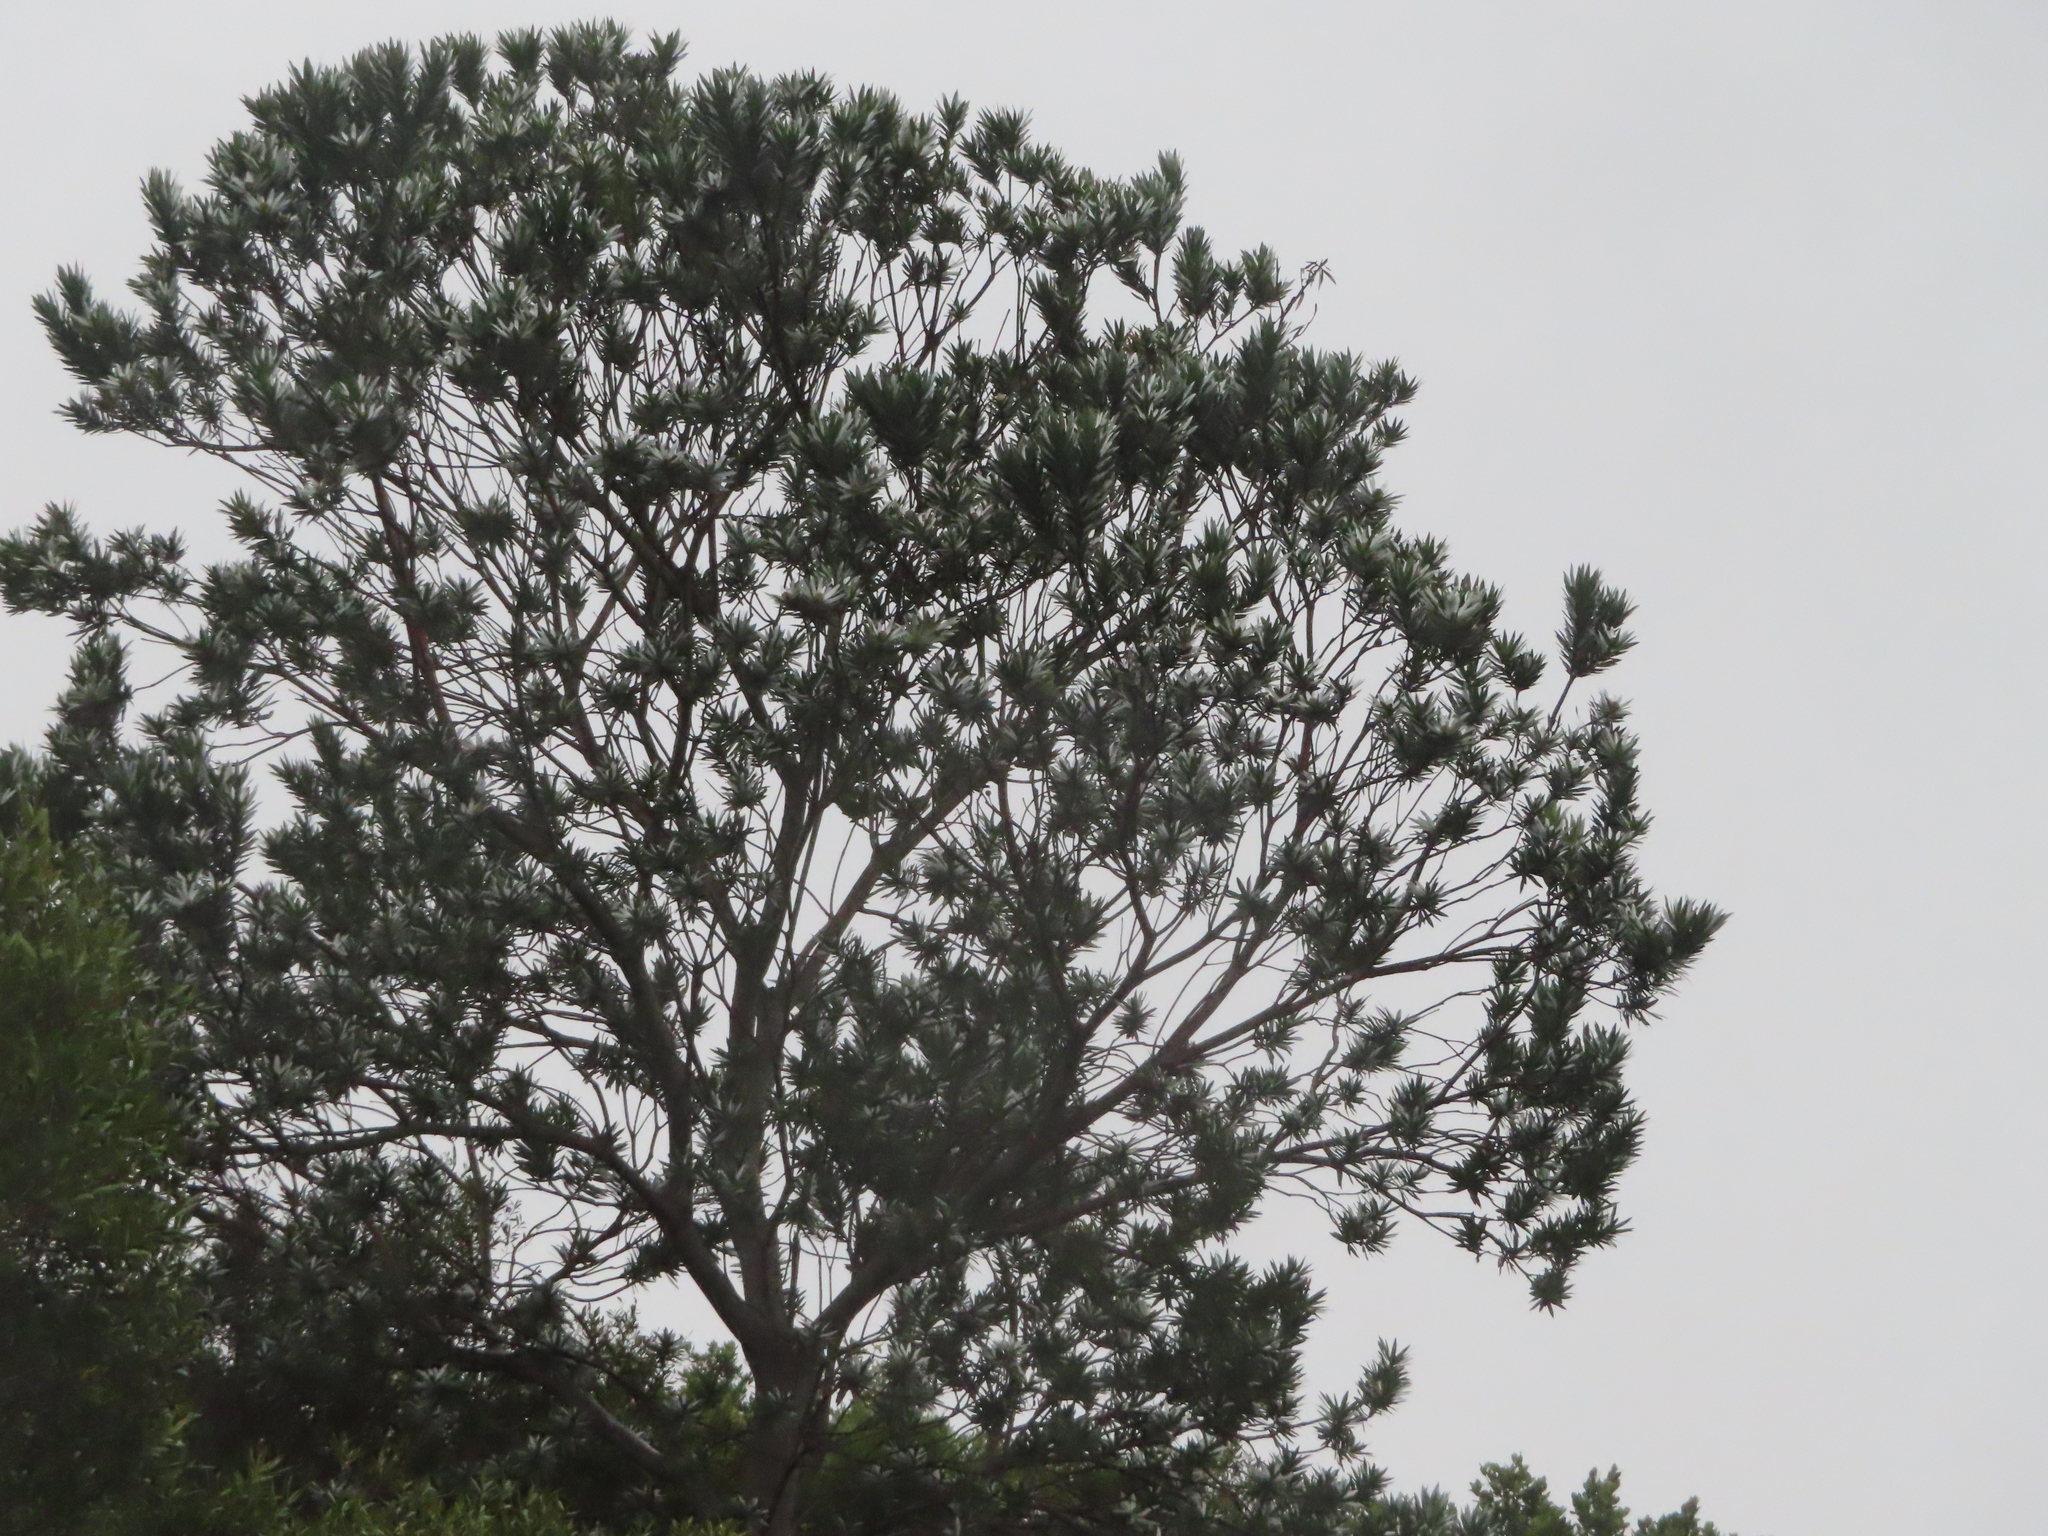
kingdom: Plantae
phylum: Tracheophyta
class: Magnoliopsida
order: Proteales
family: Proteaceae
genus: Leucadendron
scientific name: Leucadendron argenteum
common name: Cape silver tree
